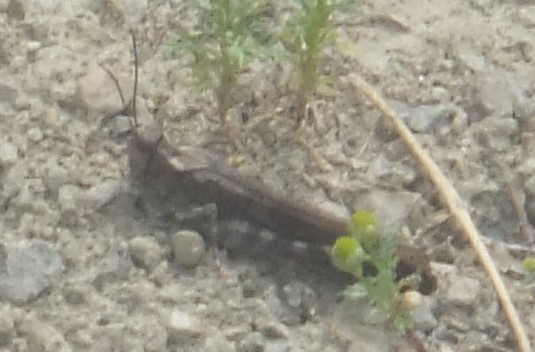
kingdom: Animalia
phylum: Arthropoda
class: Insecta
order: Orthoptera
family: Acrididae
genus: Trimerotropis
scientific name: Trimerotropis verruculata
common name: Crackling forest grasshopper
